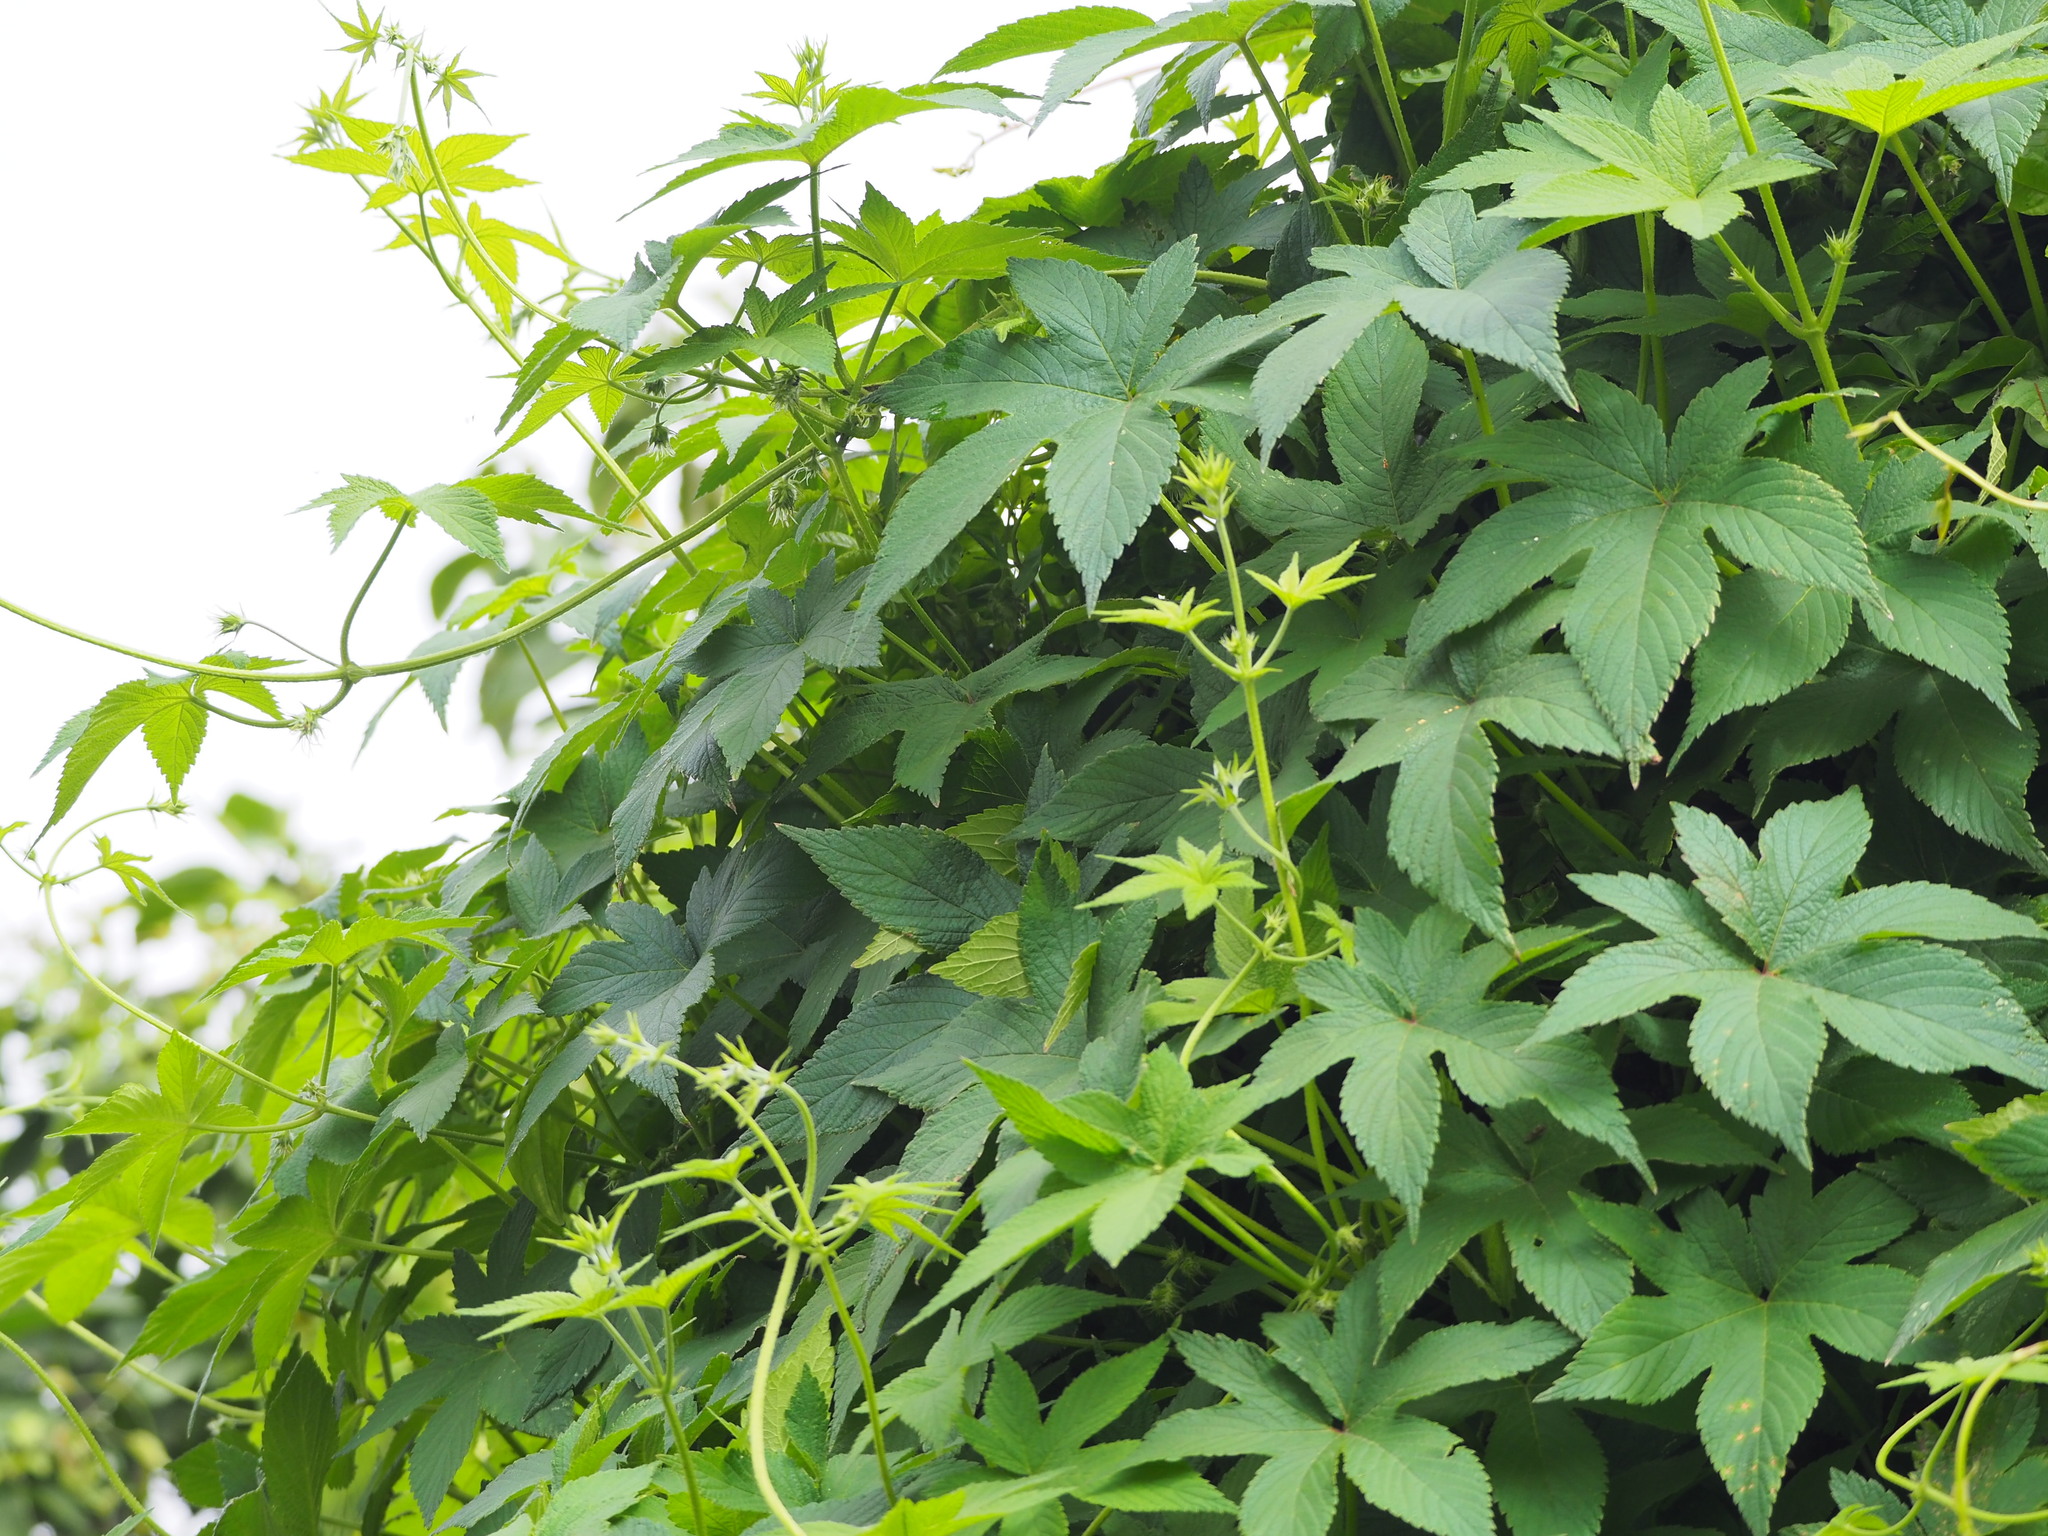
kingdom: Plantae
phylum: Tracheophyta
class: Magnoliopsida
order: Rosales
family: Cannabaceae
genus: Humulus
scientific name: Humulus scandens
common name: Japanese hop
